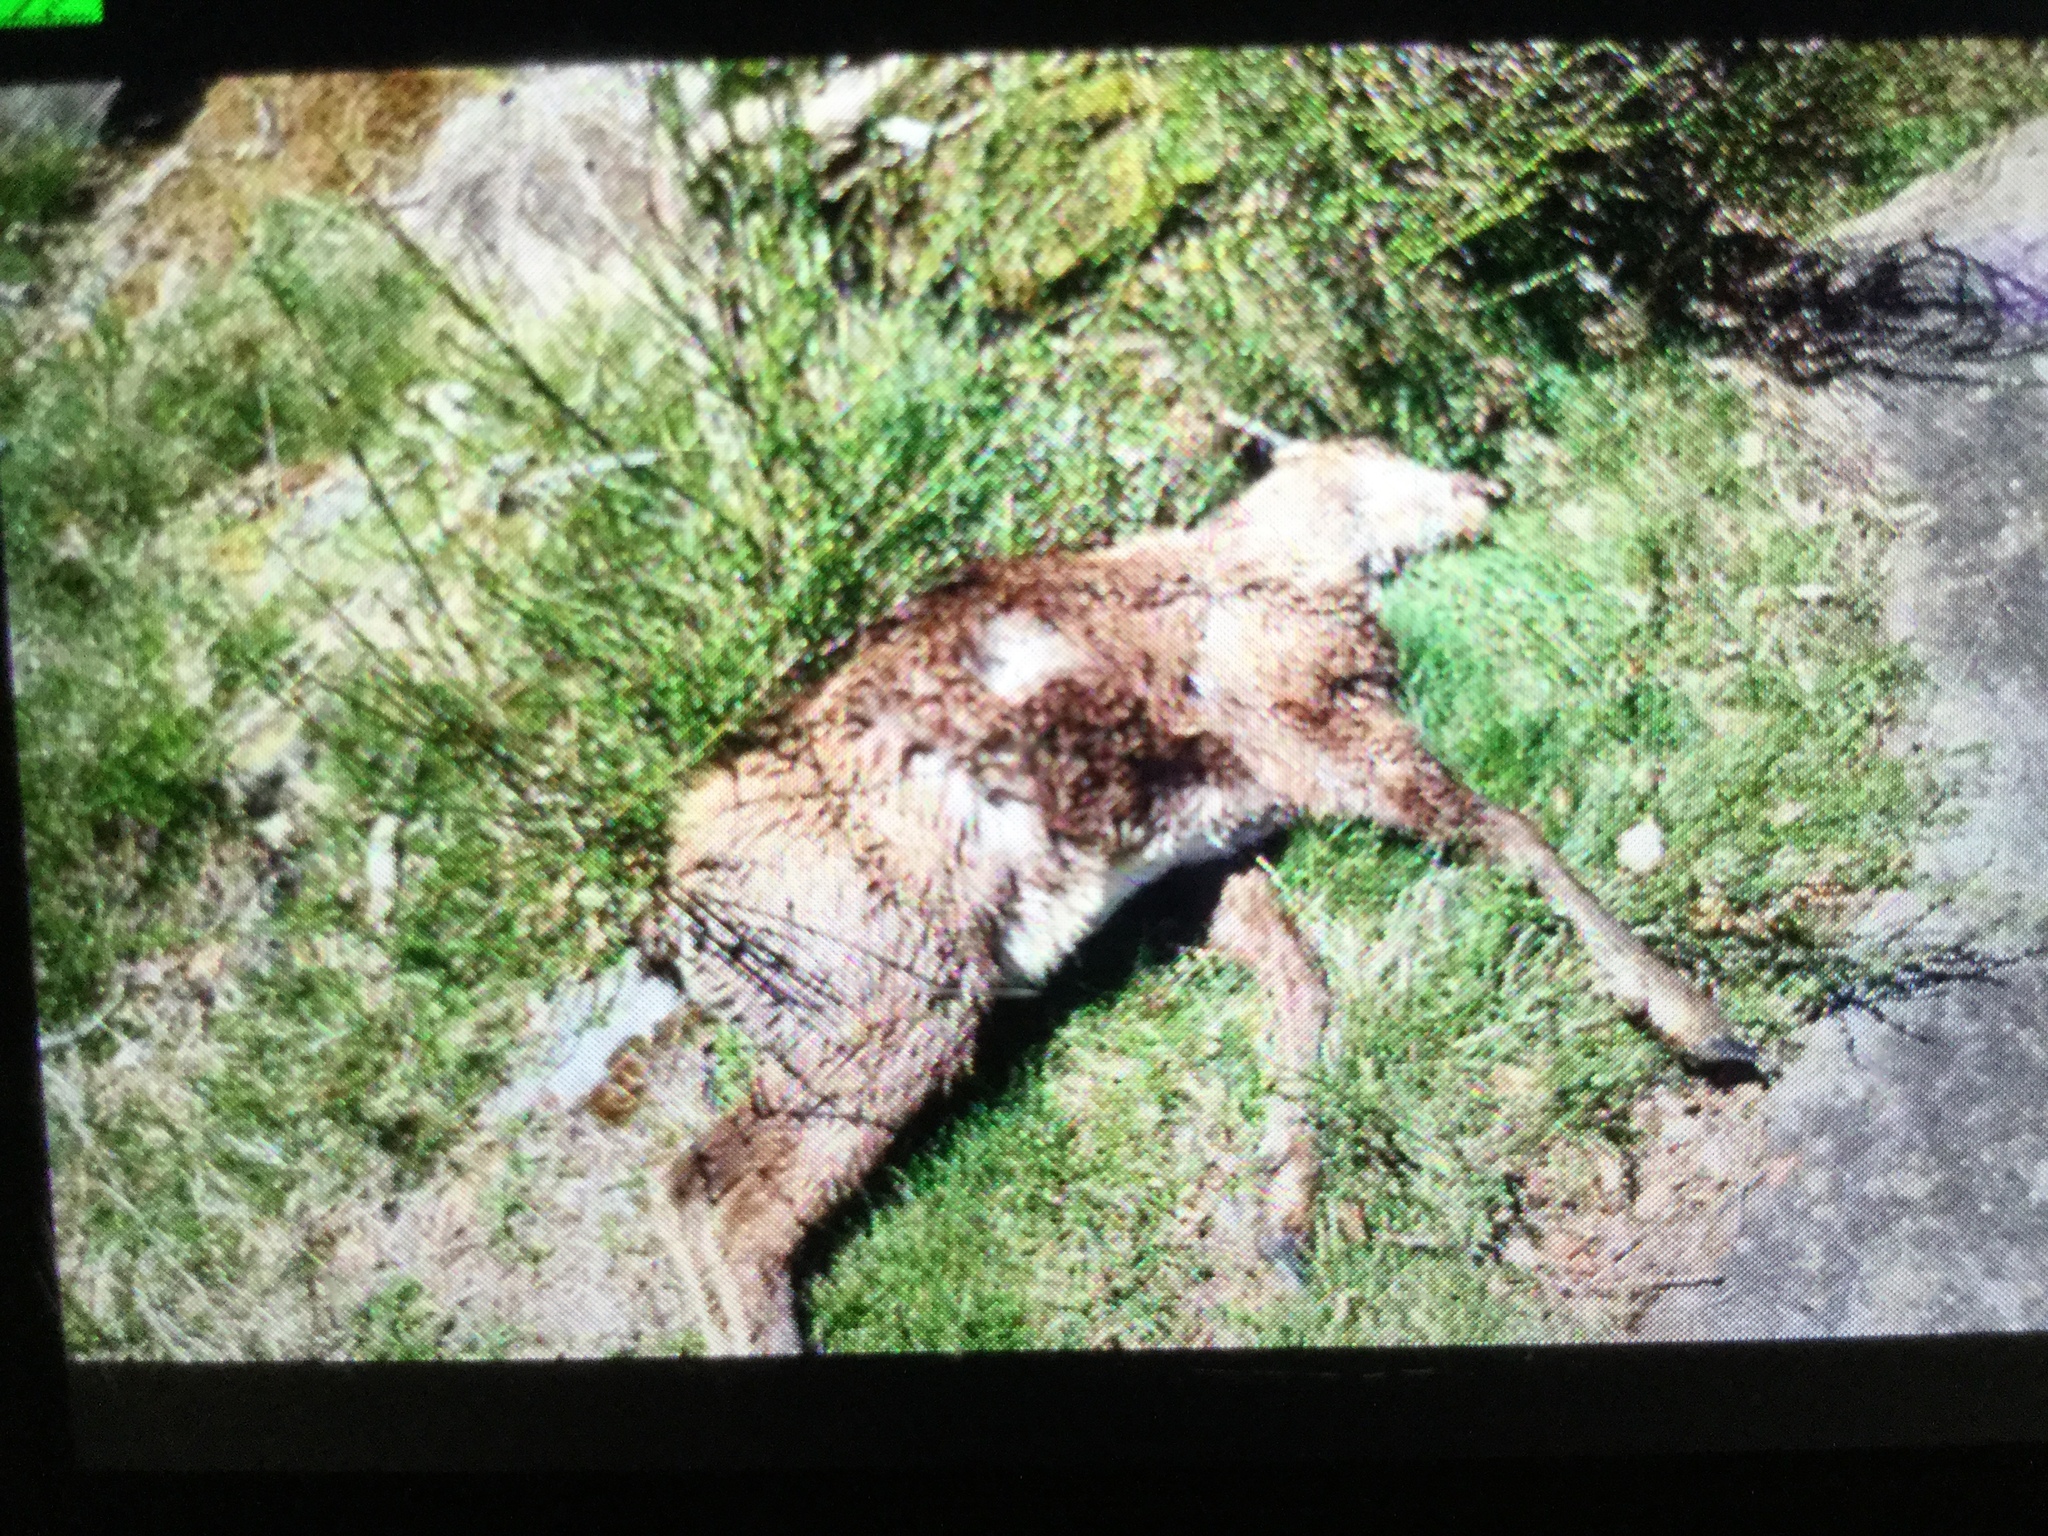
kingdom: Animalia
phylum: Chordata
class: Mammalia
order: Artiodactyla
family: Bovidae
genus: Rupicapra
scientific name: Rupicapra pyrenaica
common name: Pyrenean chamois
